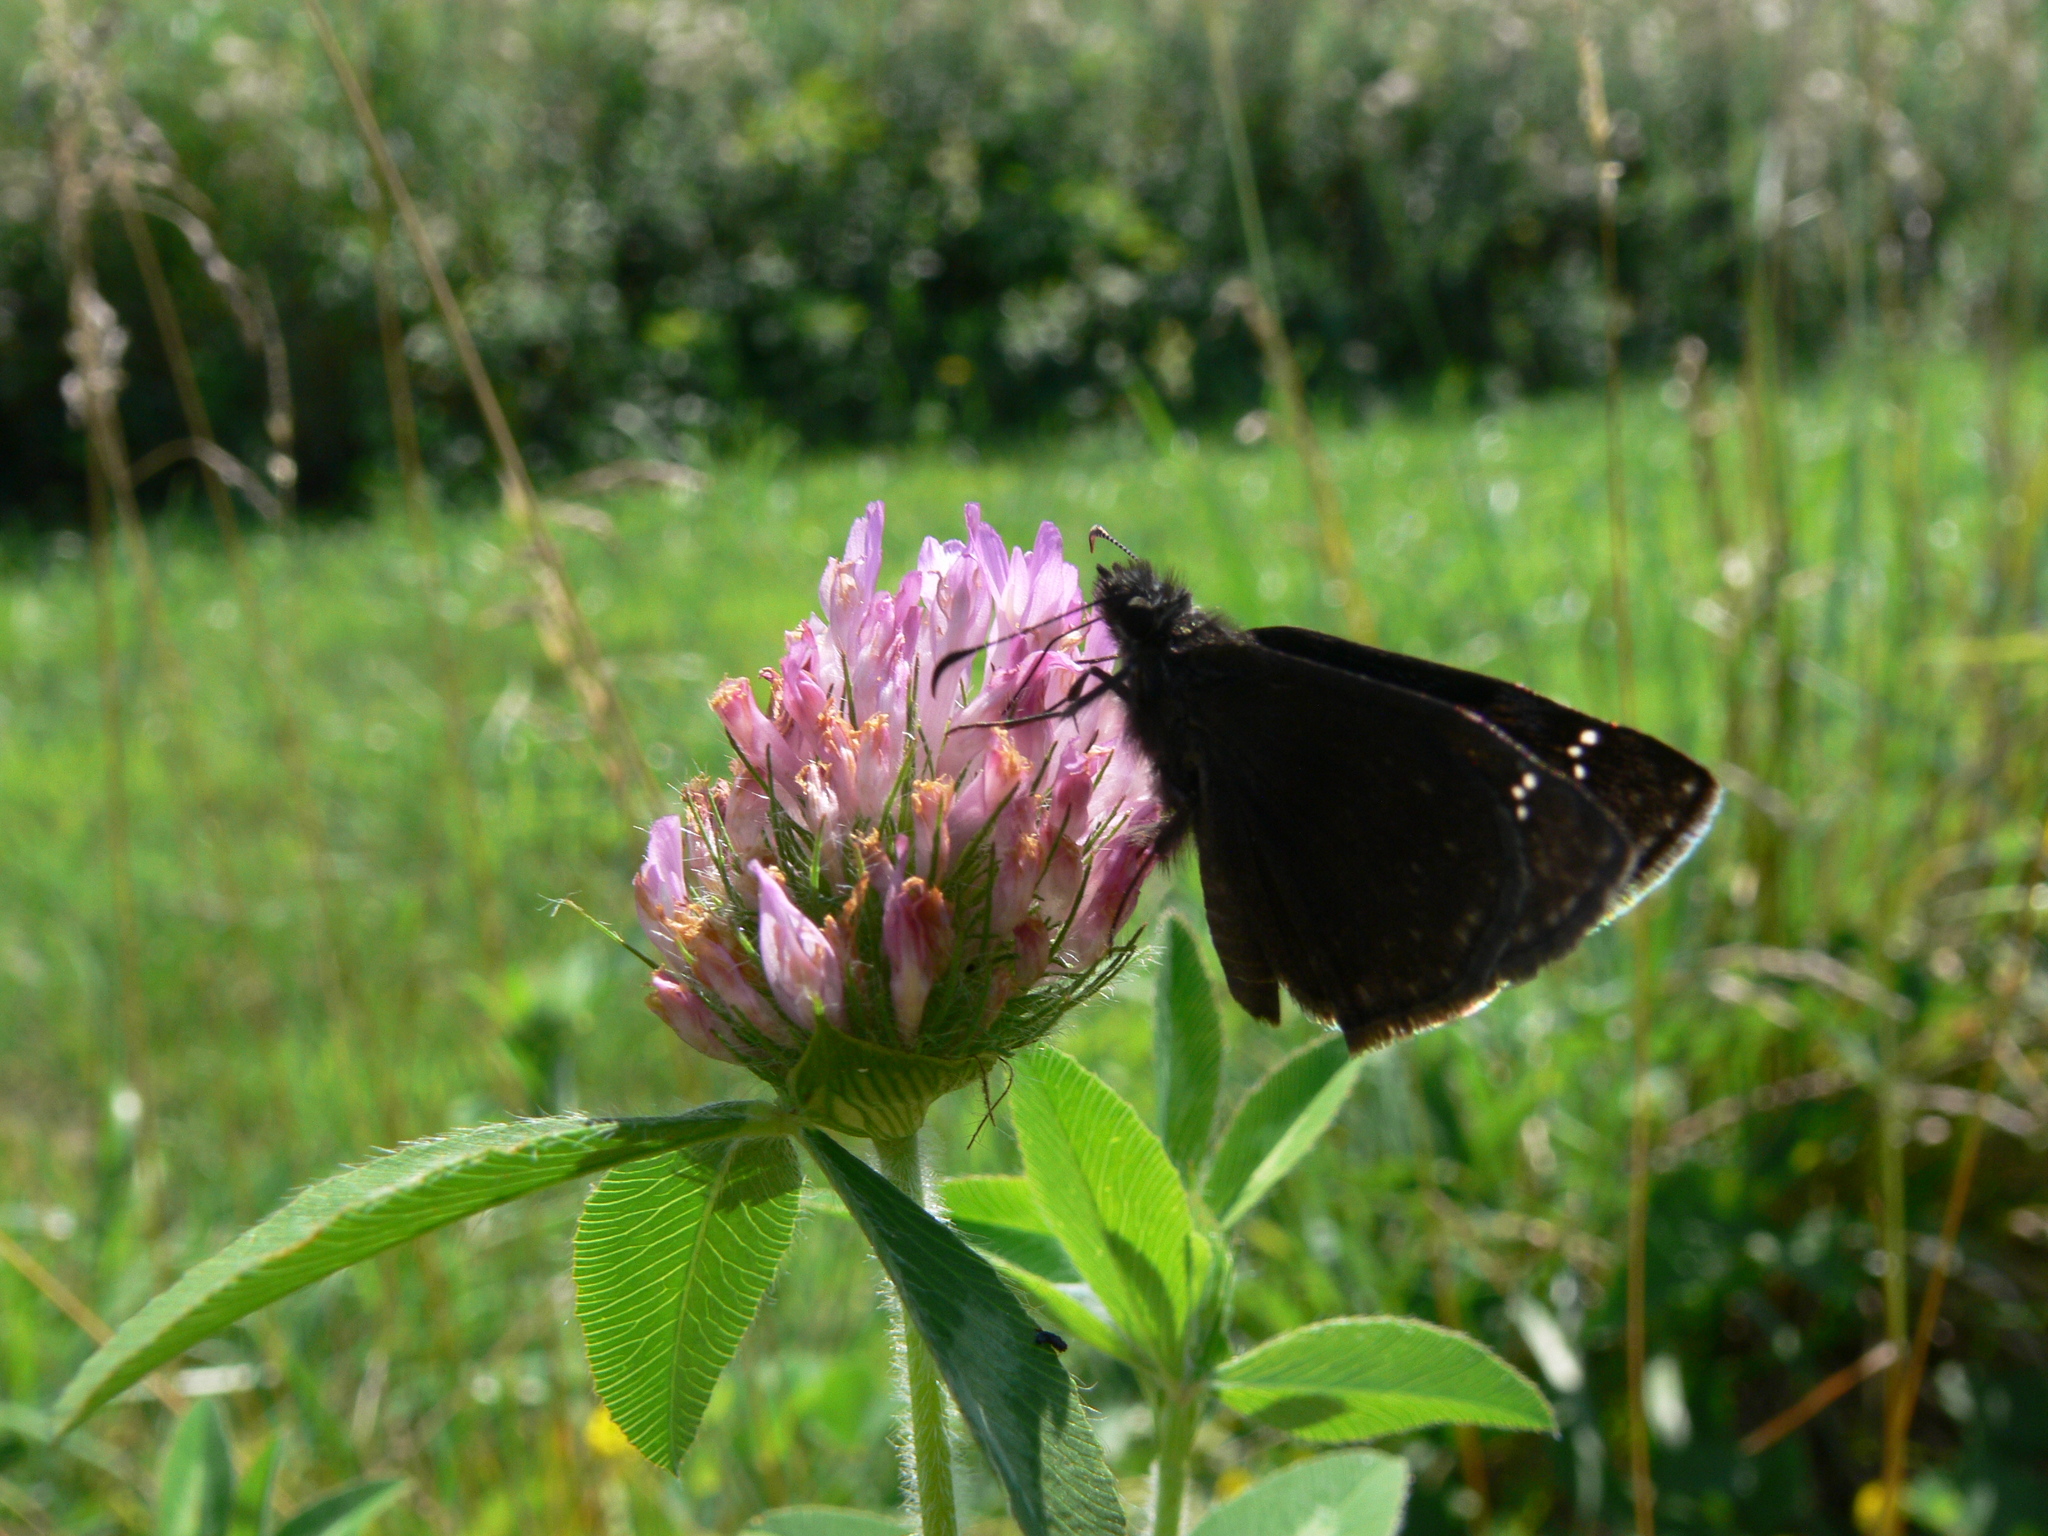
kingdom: Animalia
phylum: Arthropoda
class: Insecta
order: Lepidoptera
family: Hesperiidae
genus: Erynnis
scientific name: Erynnis baptisiae
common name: Wild indigo duskywing
